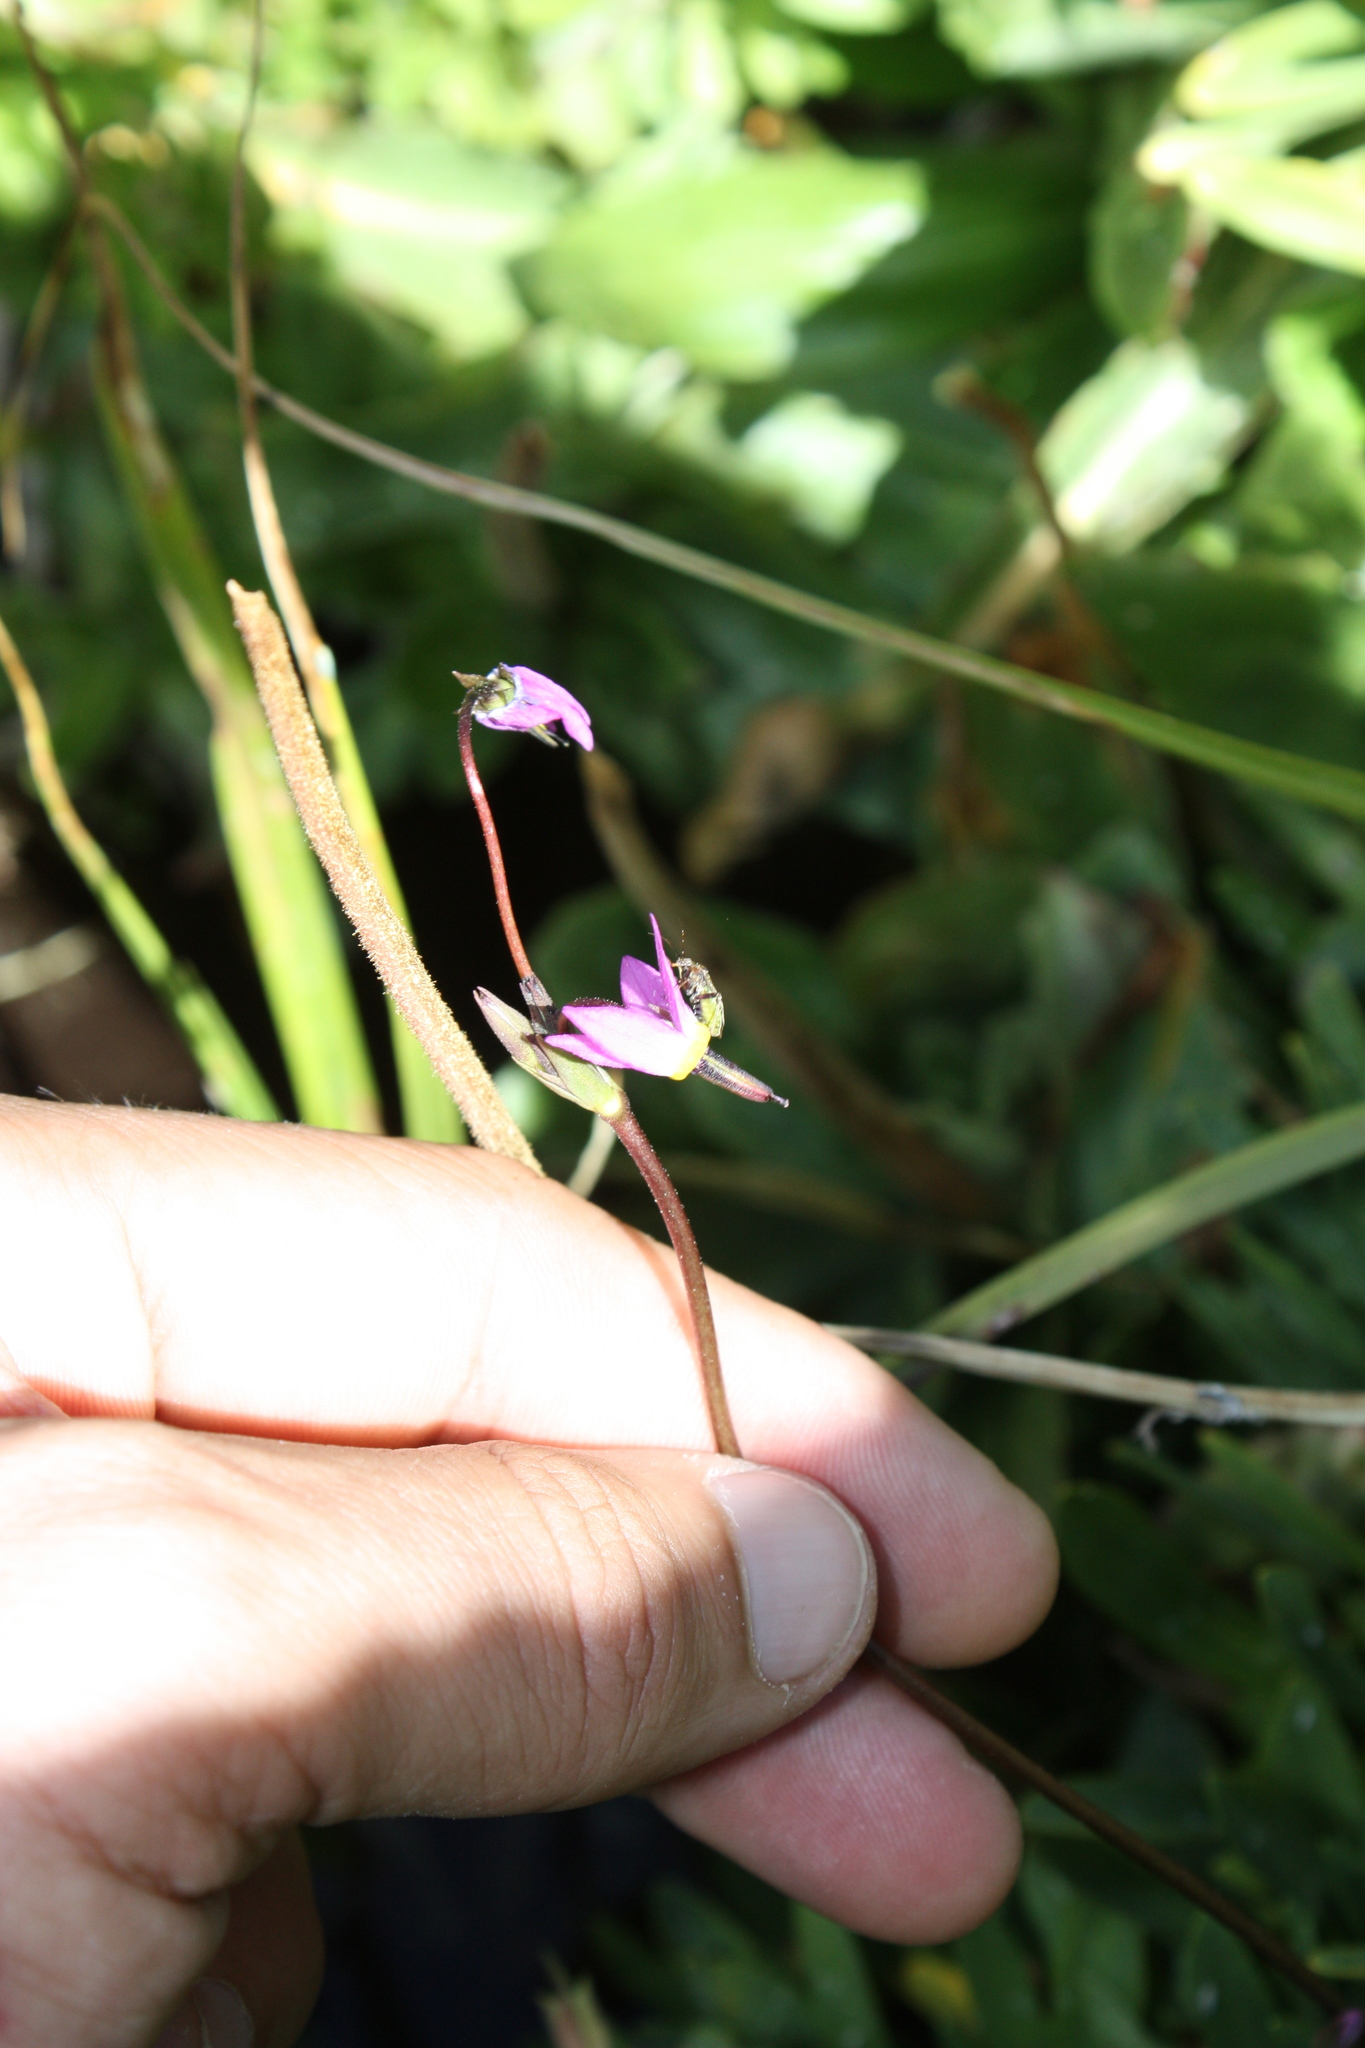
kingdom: Plantae
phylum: Tracheophyta
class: Magnoliopsida
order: Ericales
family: Primulaceae
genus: Dodecatheon
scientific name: Dodecatheon alpinum
